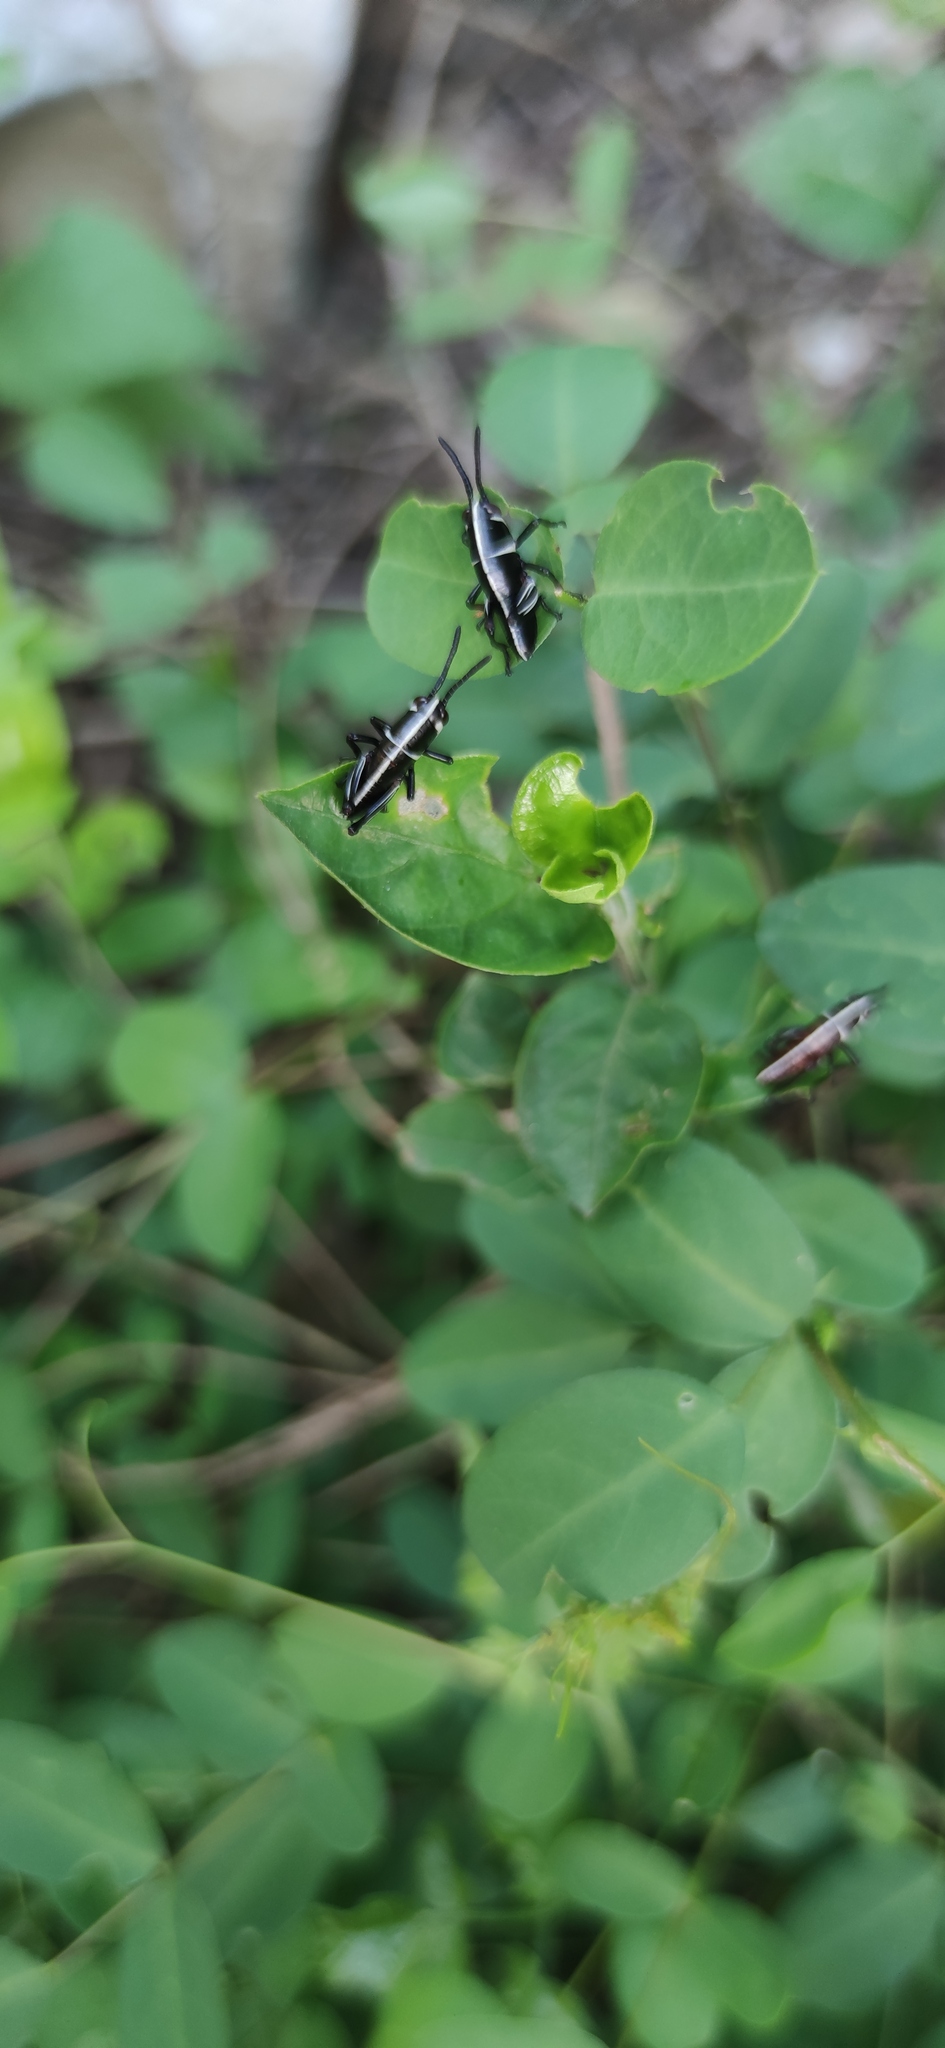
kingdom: Animalia
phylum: Arthropoda
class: Insecta
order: Orthoptera
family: Romaleidae
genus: Romalea
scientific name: Romalea
